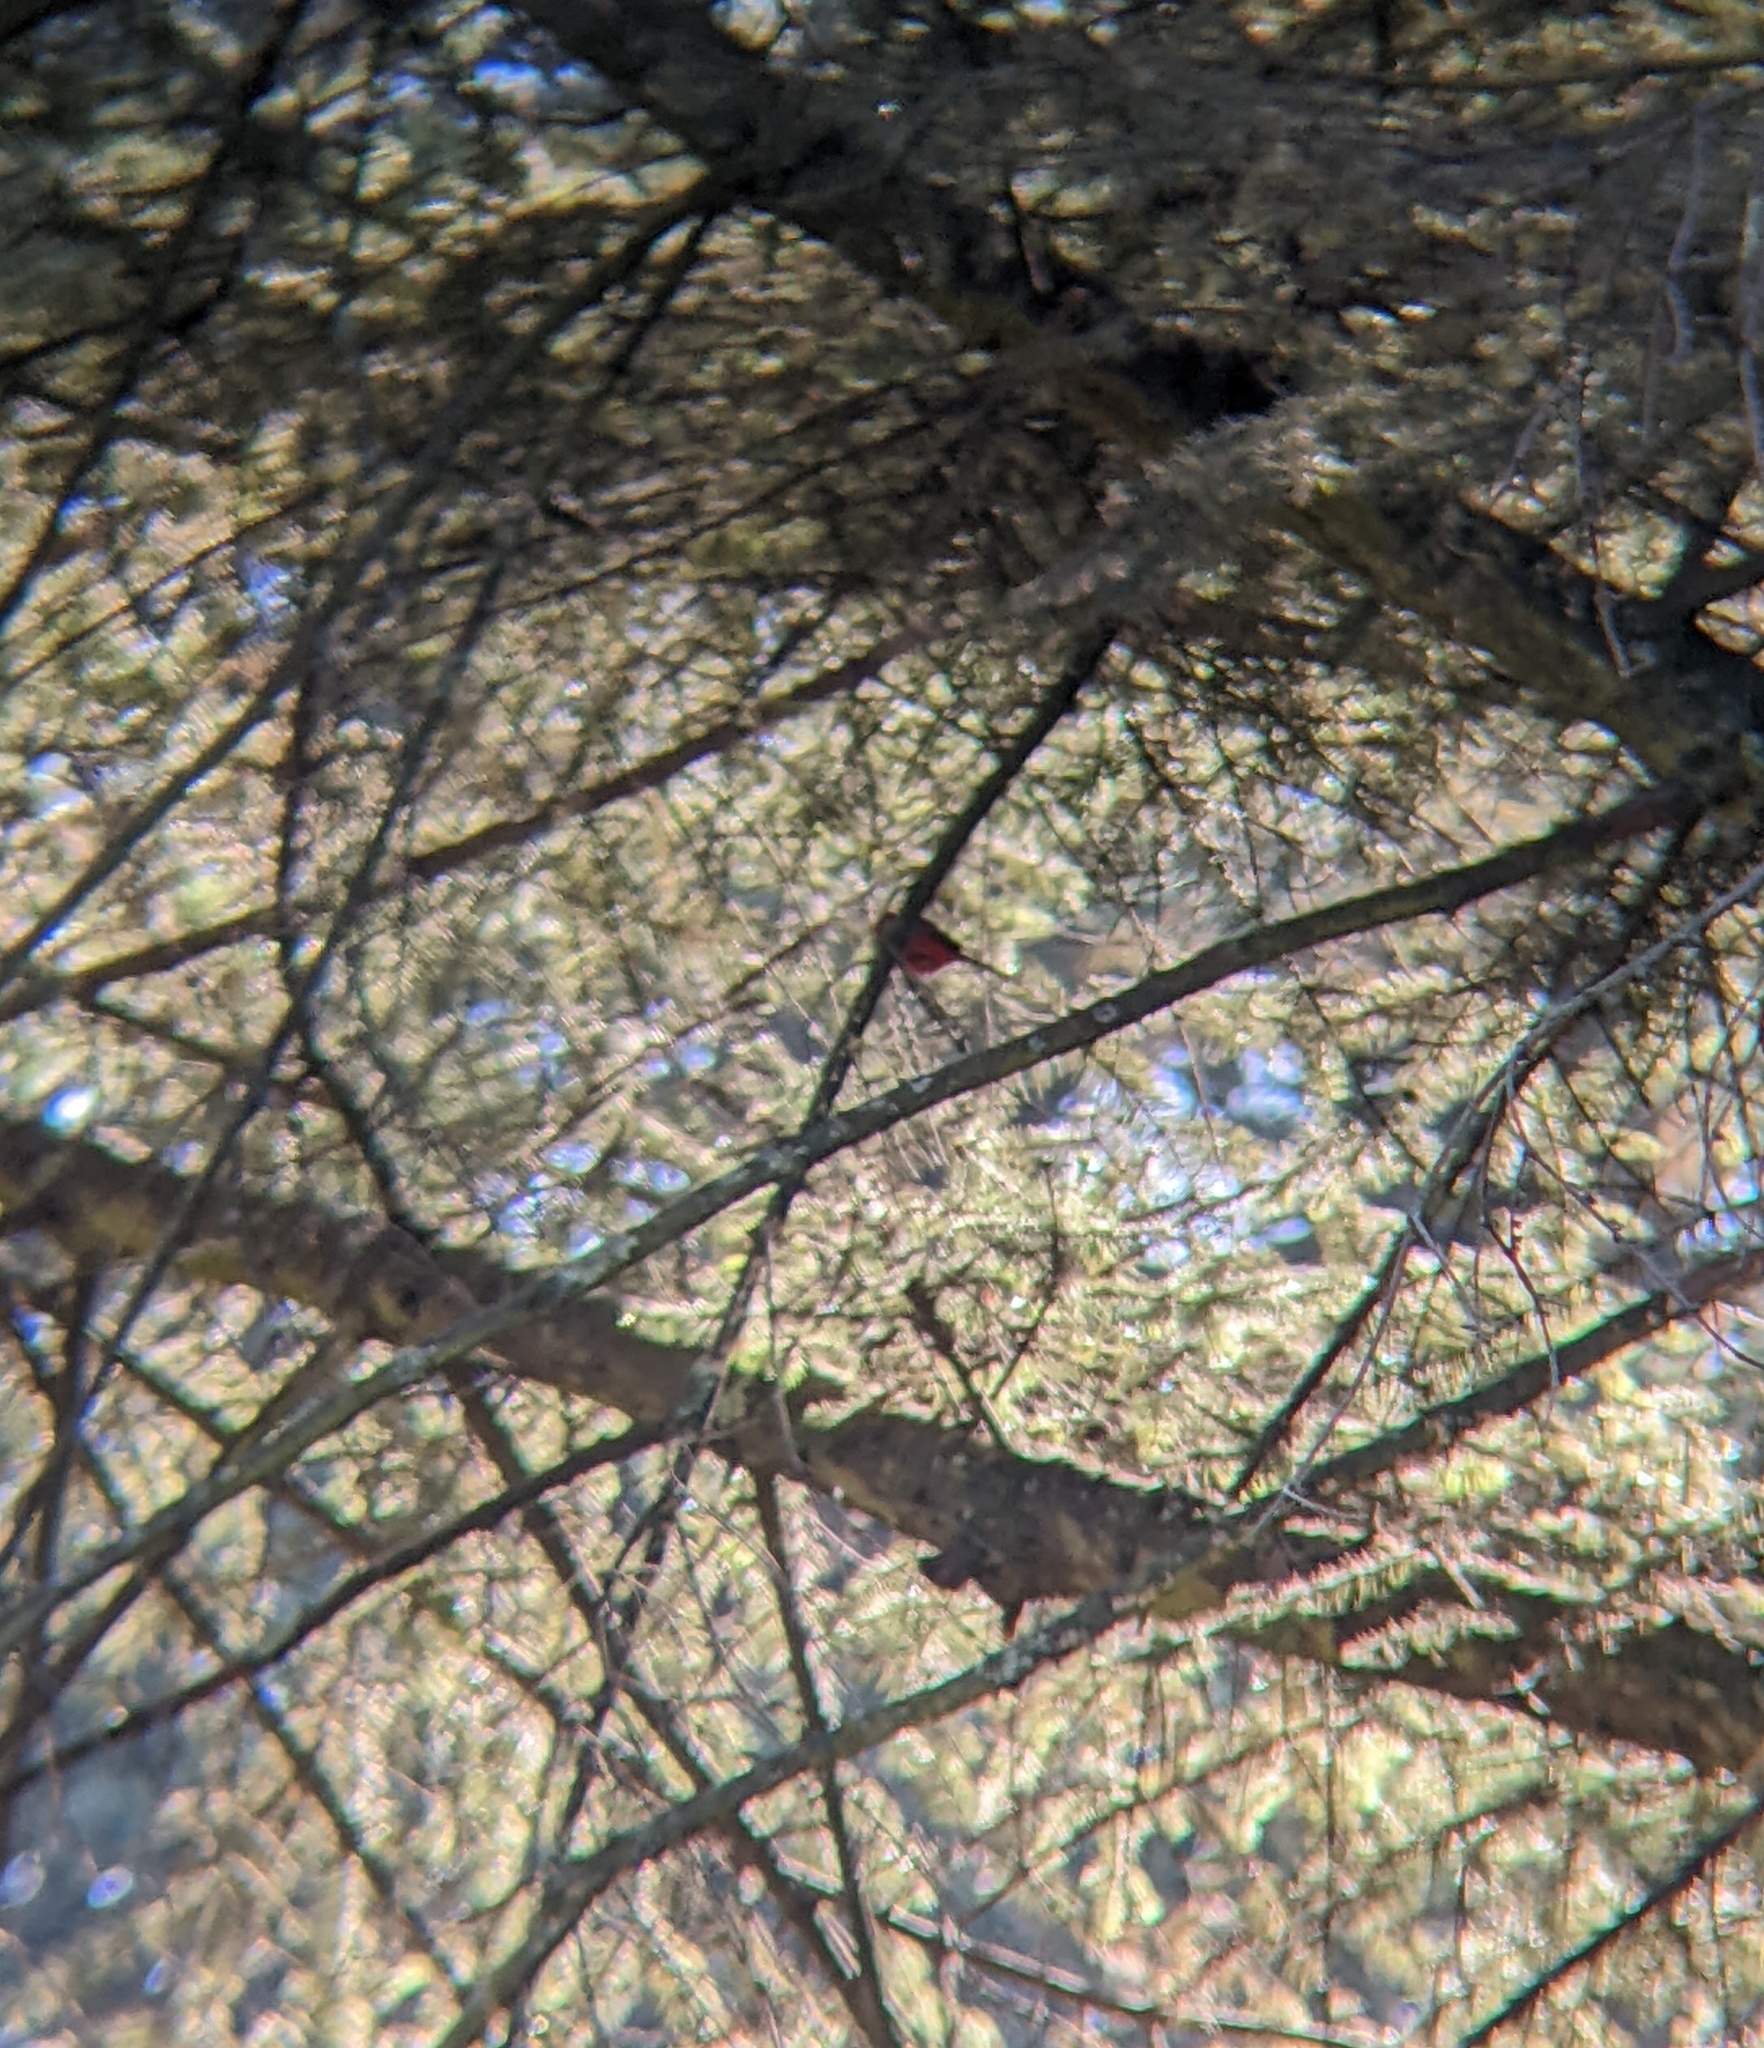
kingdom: Animalia
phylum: Chordata
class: Aves
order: Passeriformes
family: Parulidae
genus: Cardellina
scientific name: Cardellina rubra
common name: Red warbler
